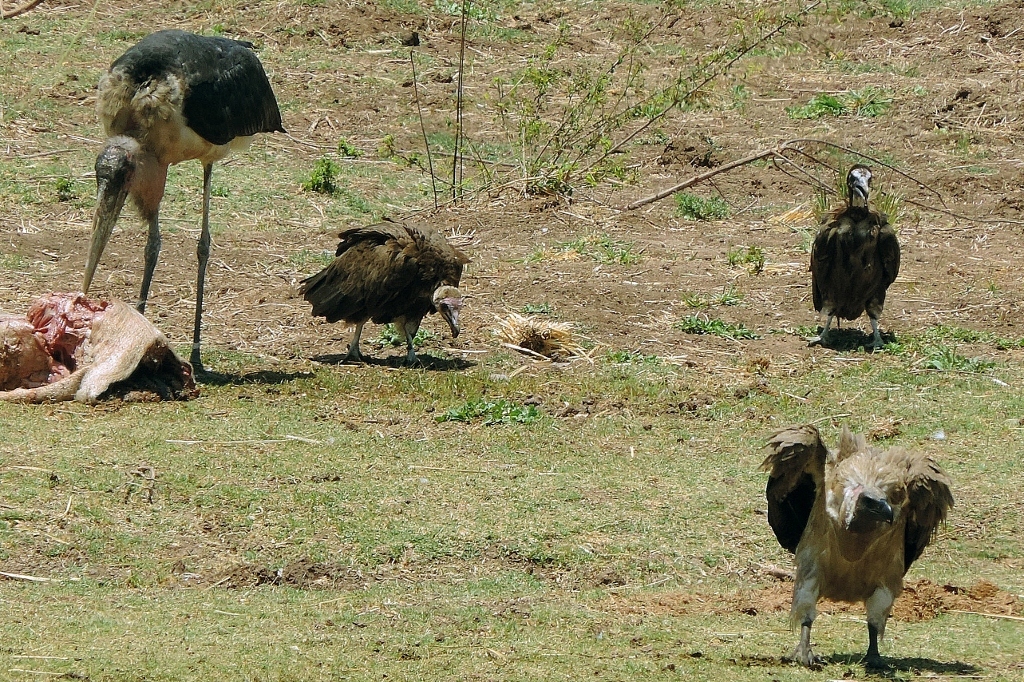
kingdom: Animalia
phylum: Chordata
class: Aves
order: Accipitriformes
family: Accipitridae
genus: Necrosyrtes
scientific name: Necrosyrtes monachus
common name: Hooded vulture
